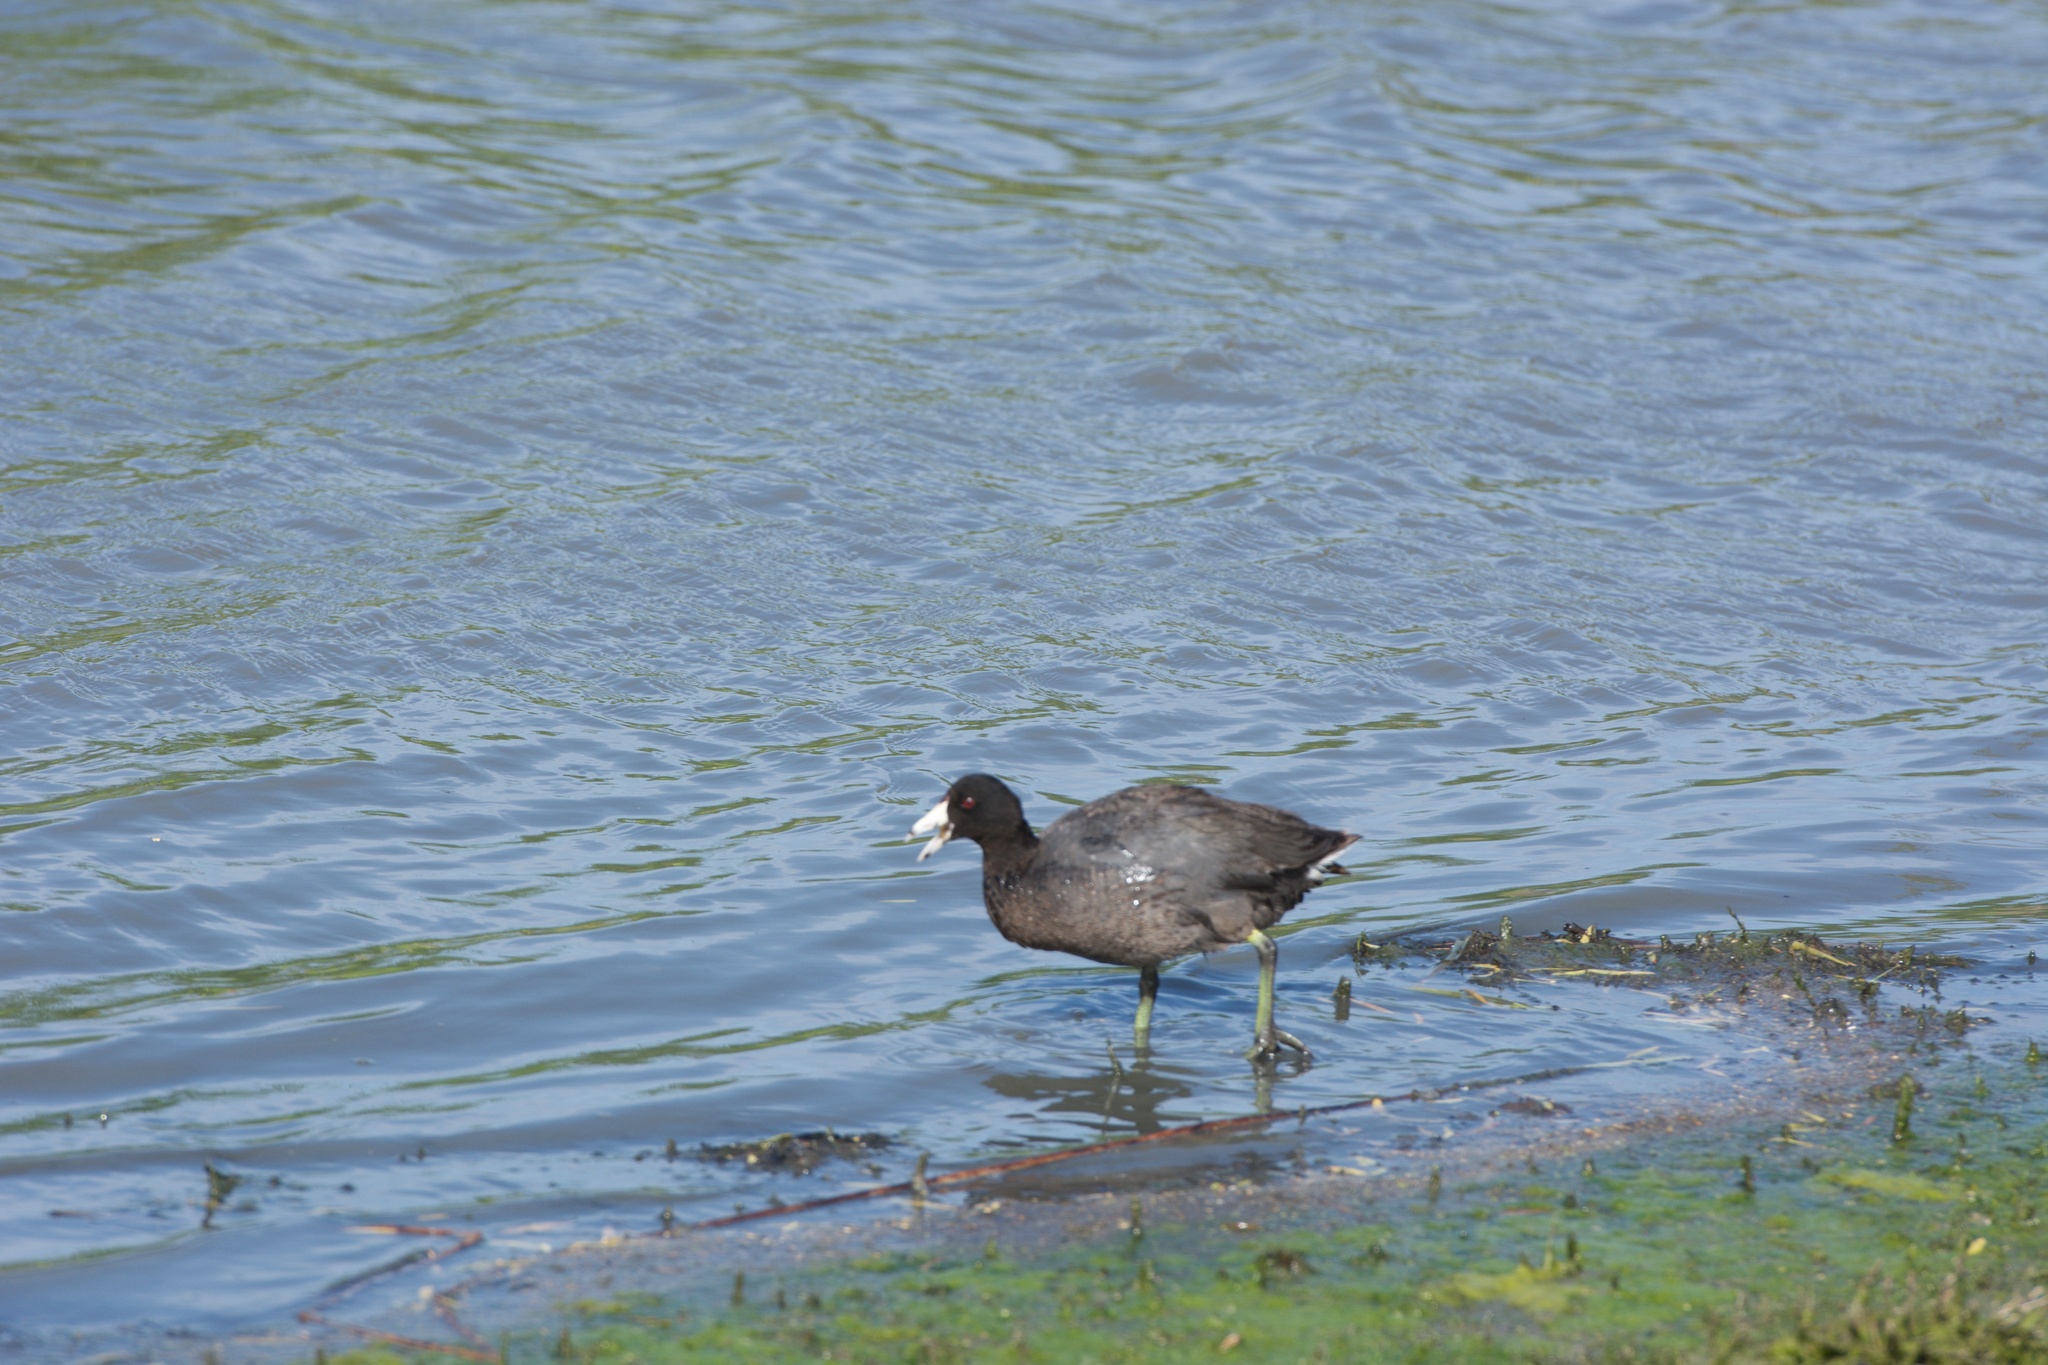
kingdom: Animalia
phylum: Chordata
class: Aves
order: Gruiformes
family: Rallidae
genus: Fulica
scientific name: Fulica americana
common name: American coot
